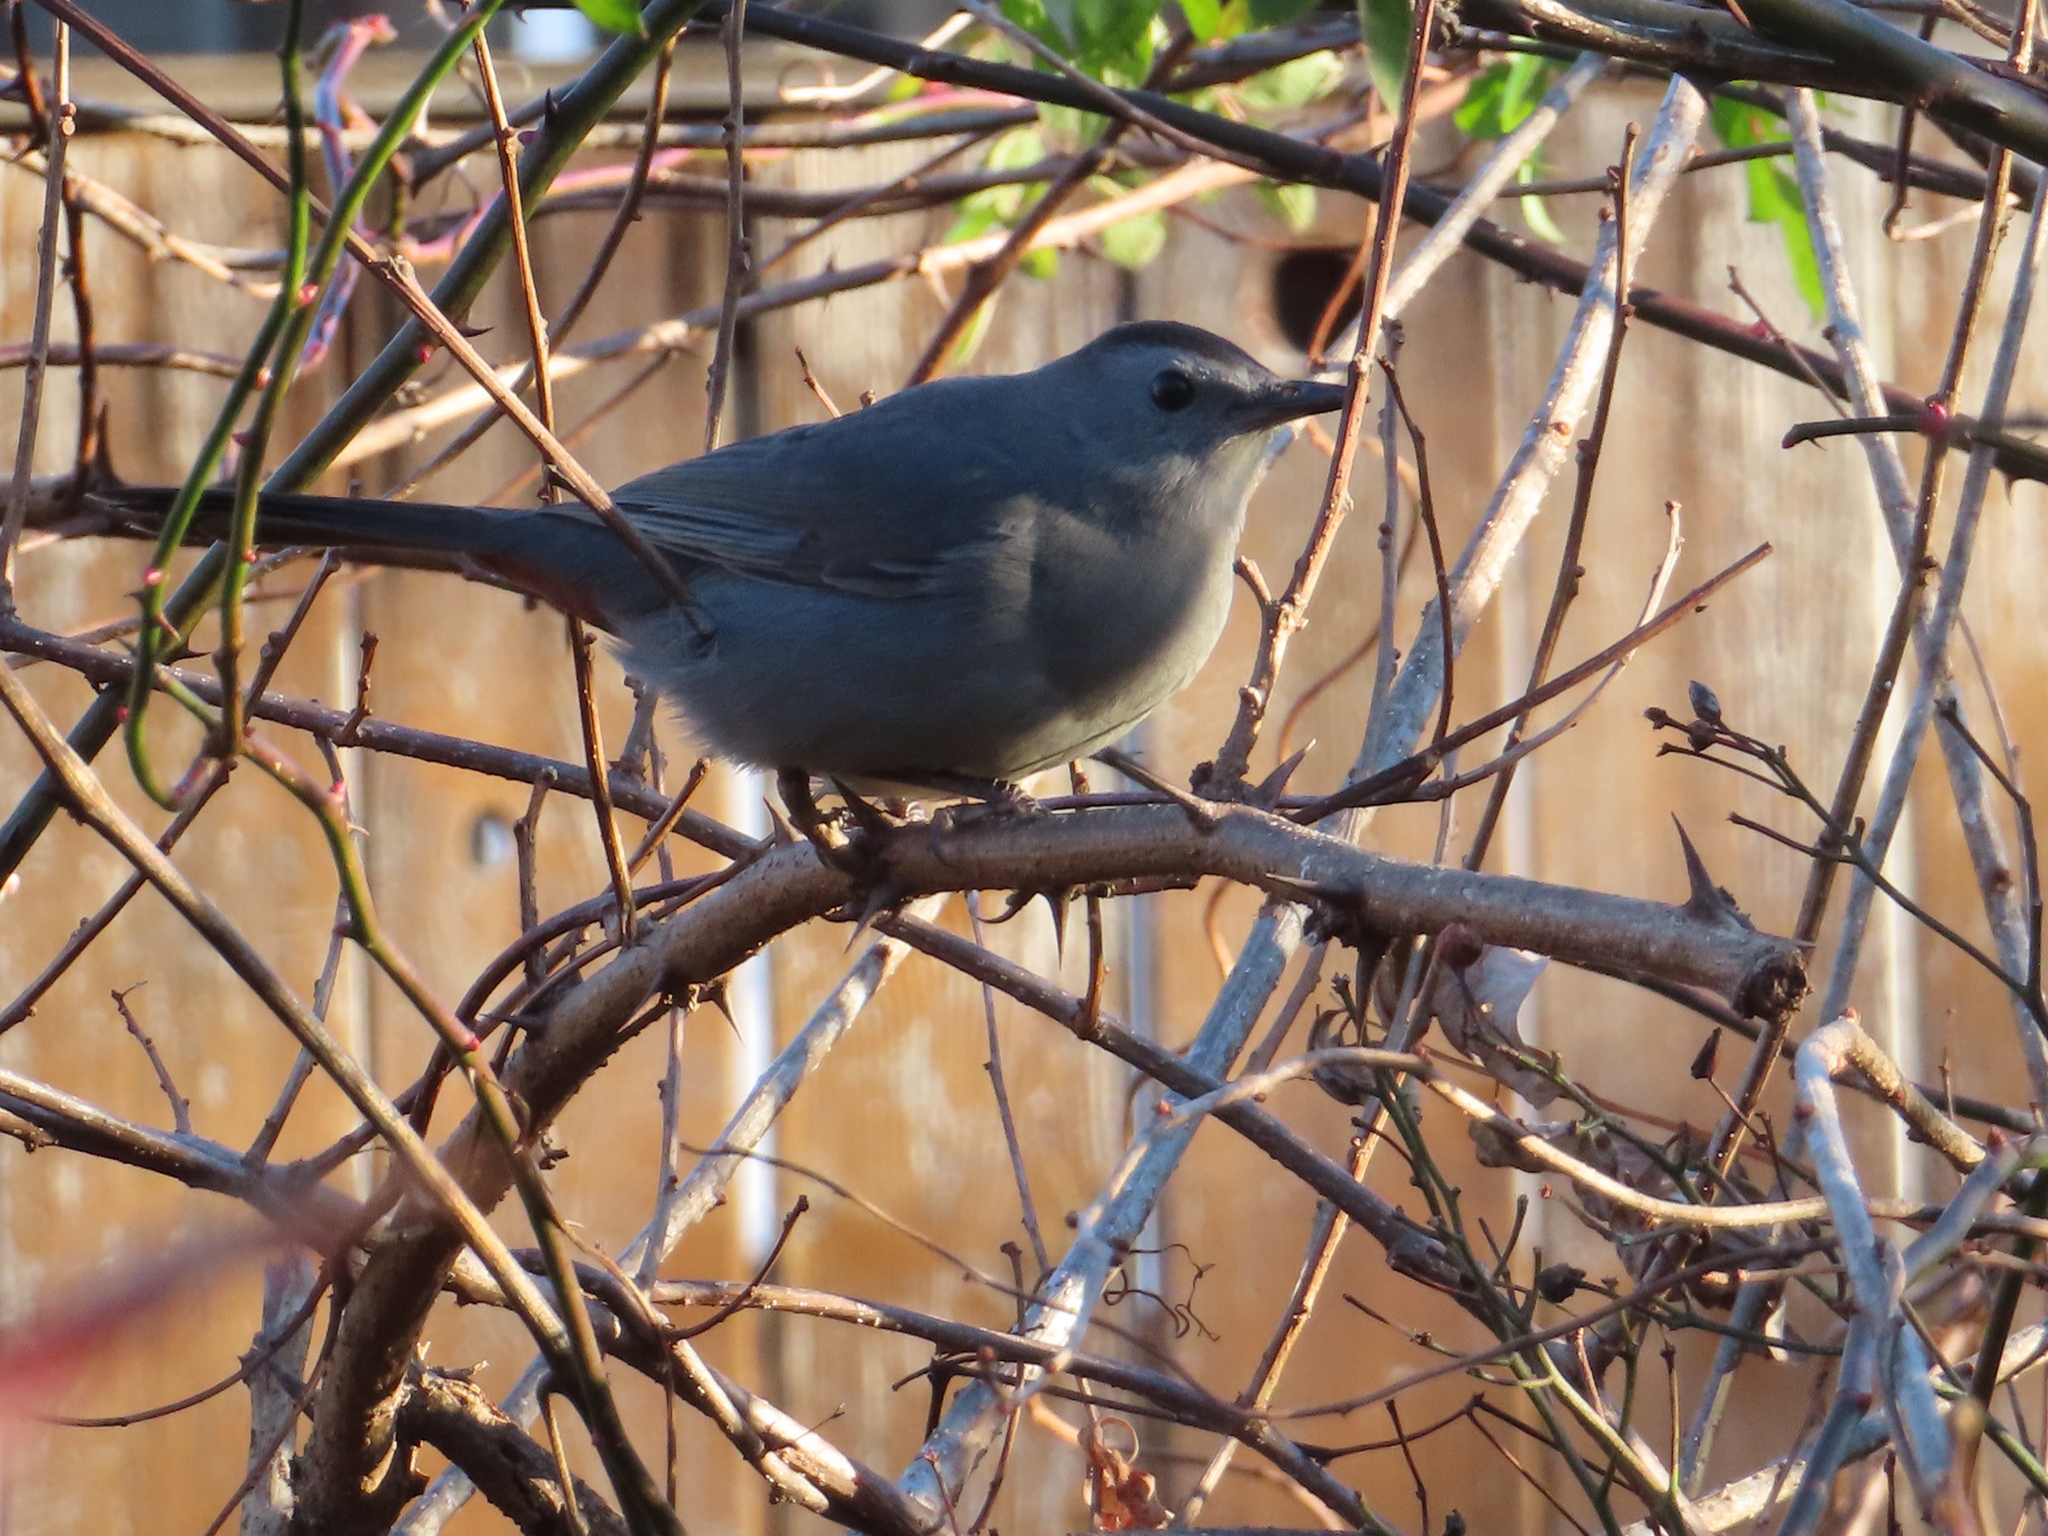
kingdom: Animalia
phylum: Chordata
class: Aves
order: Passeriformes
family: Mimidae
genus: Dumetella
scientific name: Dumetella carolinensis
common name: Gray catbird
